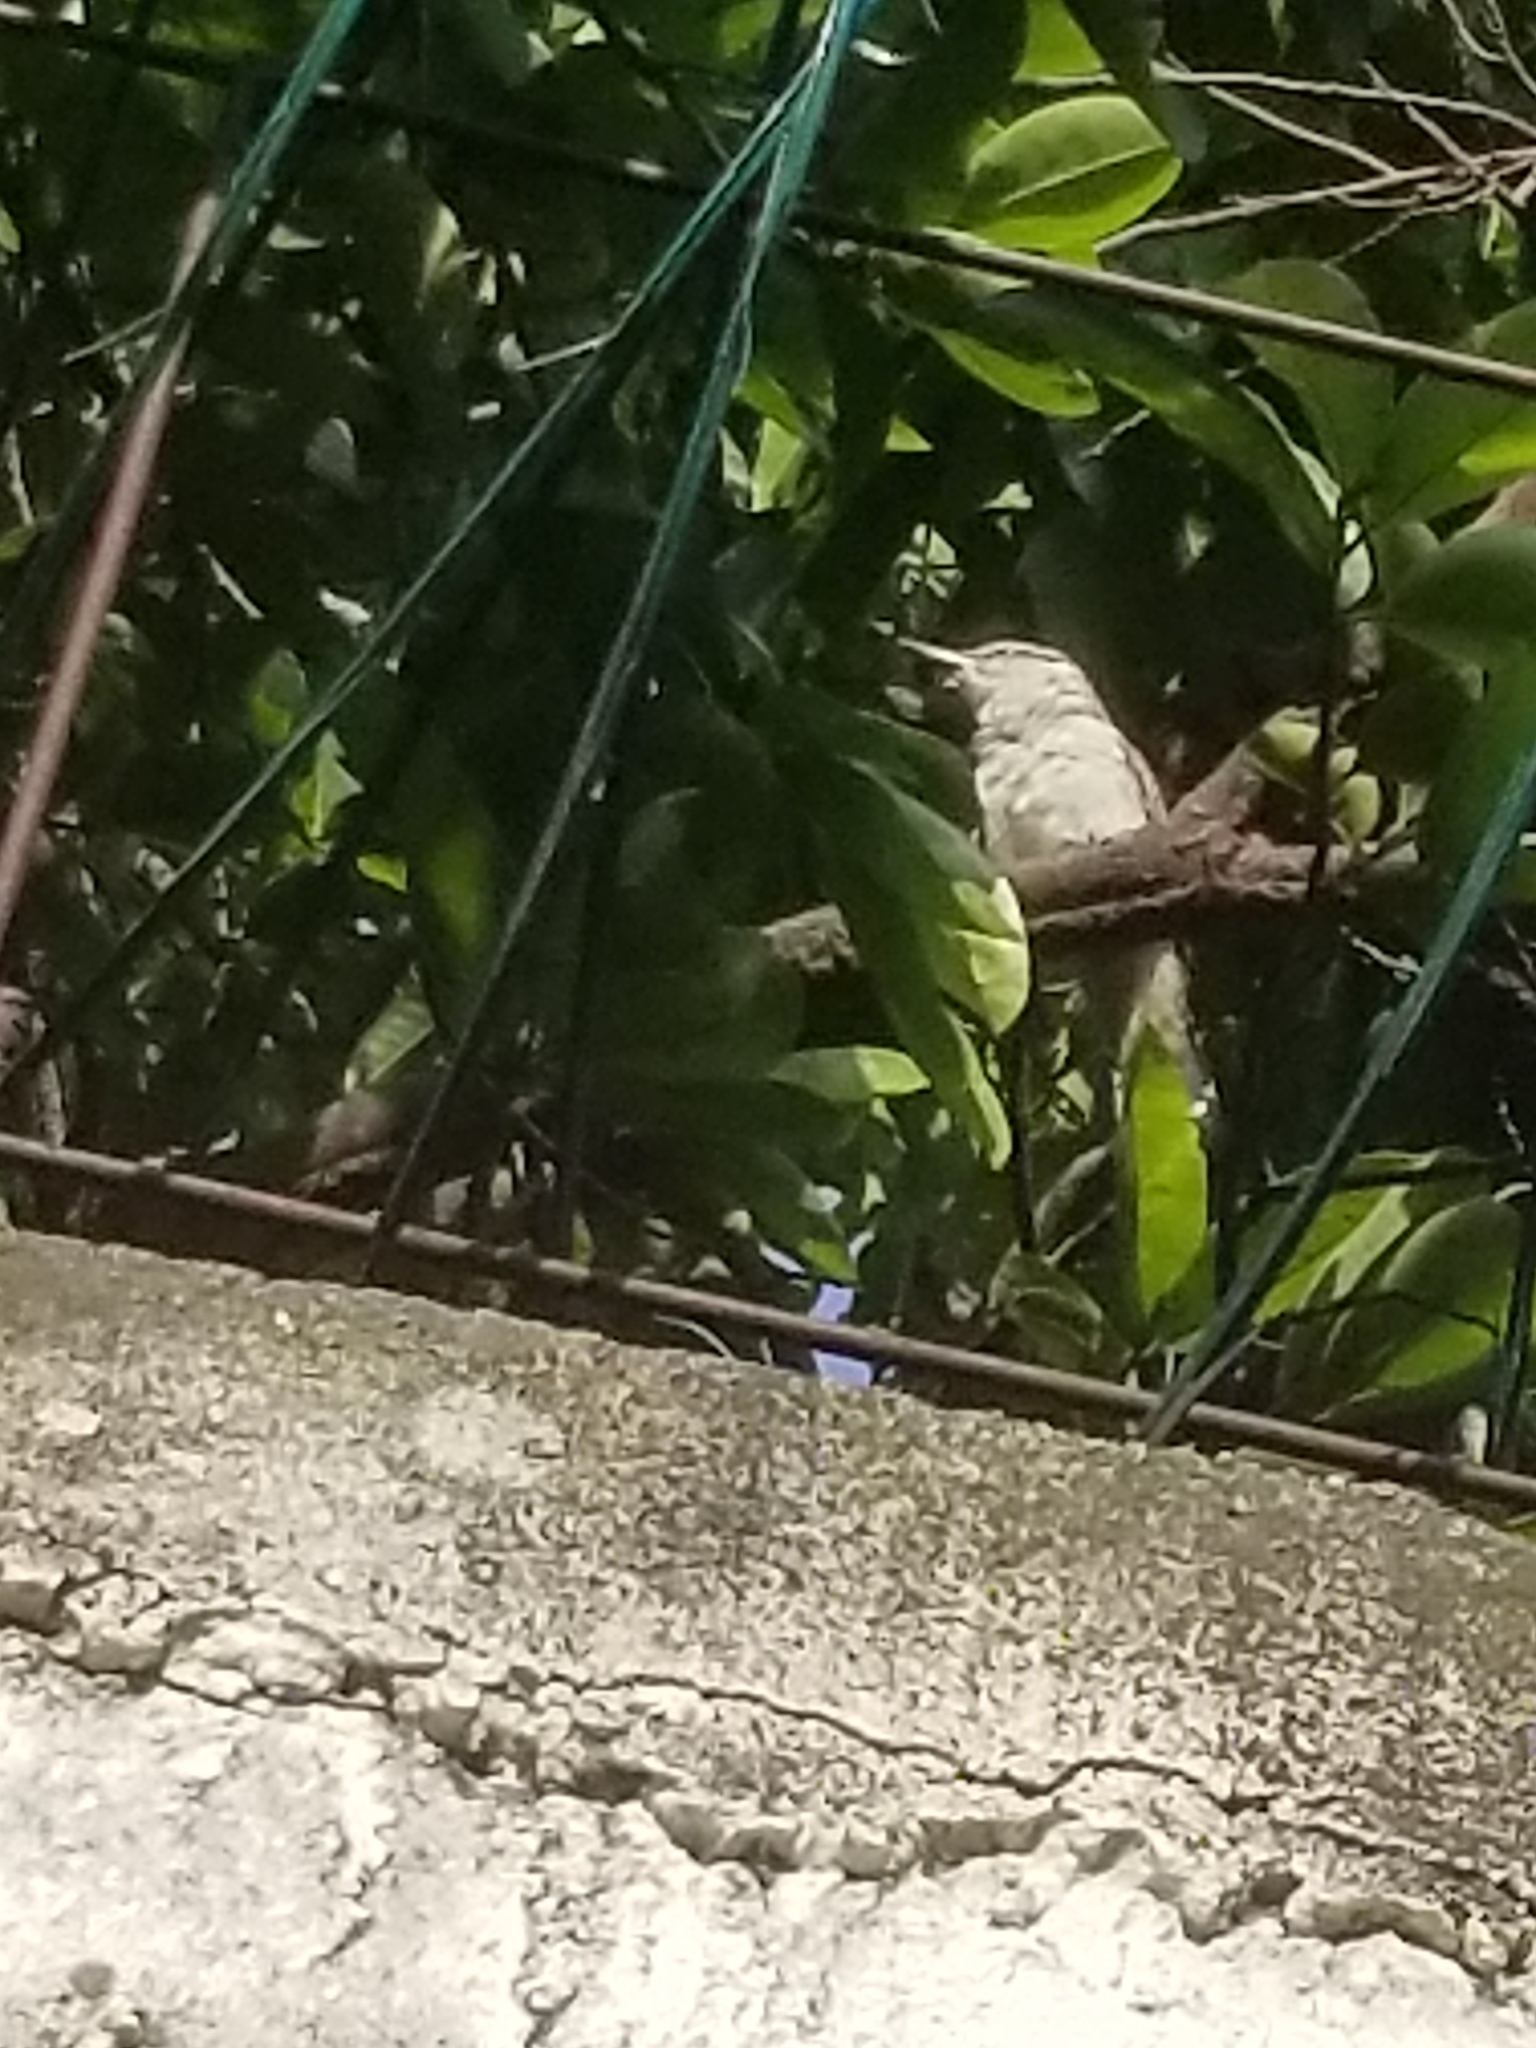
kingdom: Animalia
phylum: Chordata
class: Aves
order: Passeriformes
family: Troglodytidae
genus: Campylorhynchus
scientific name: Campylorhynchus rufinucha
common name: Rufous-naped wren
